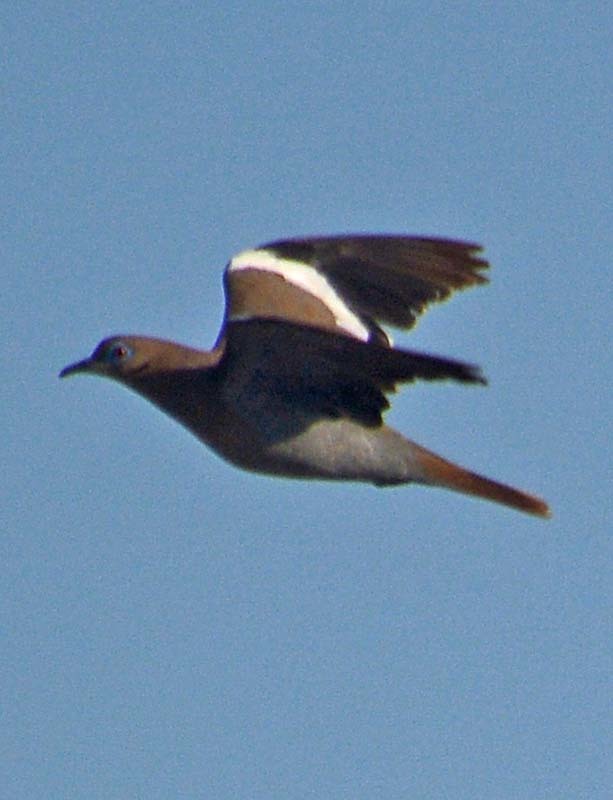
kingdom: Animalia
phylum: Chordata
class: Aves
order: Columbiformes
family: Columbidae
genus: Zenaida
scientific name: Zenaida asiatica
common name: White-winged dove
